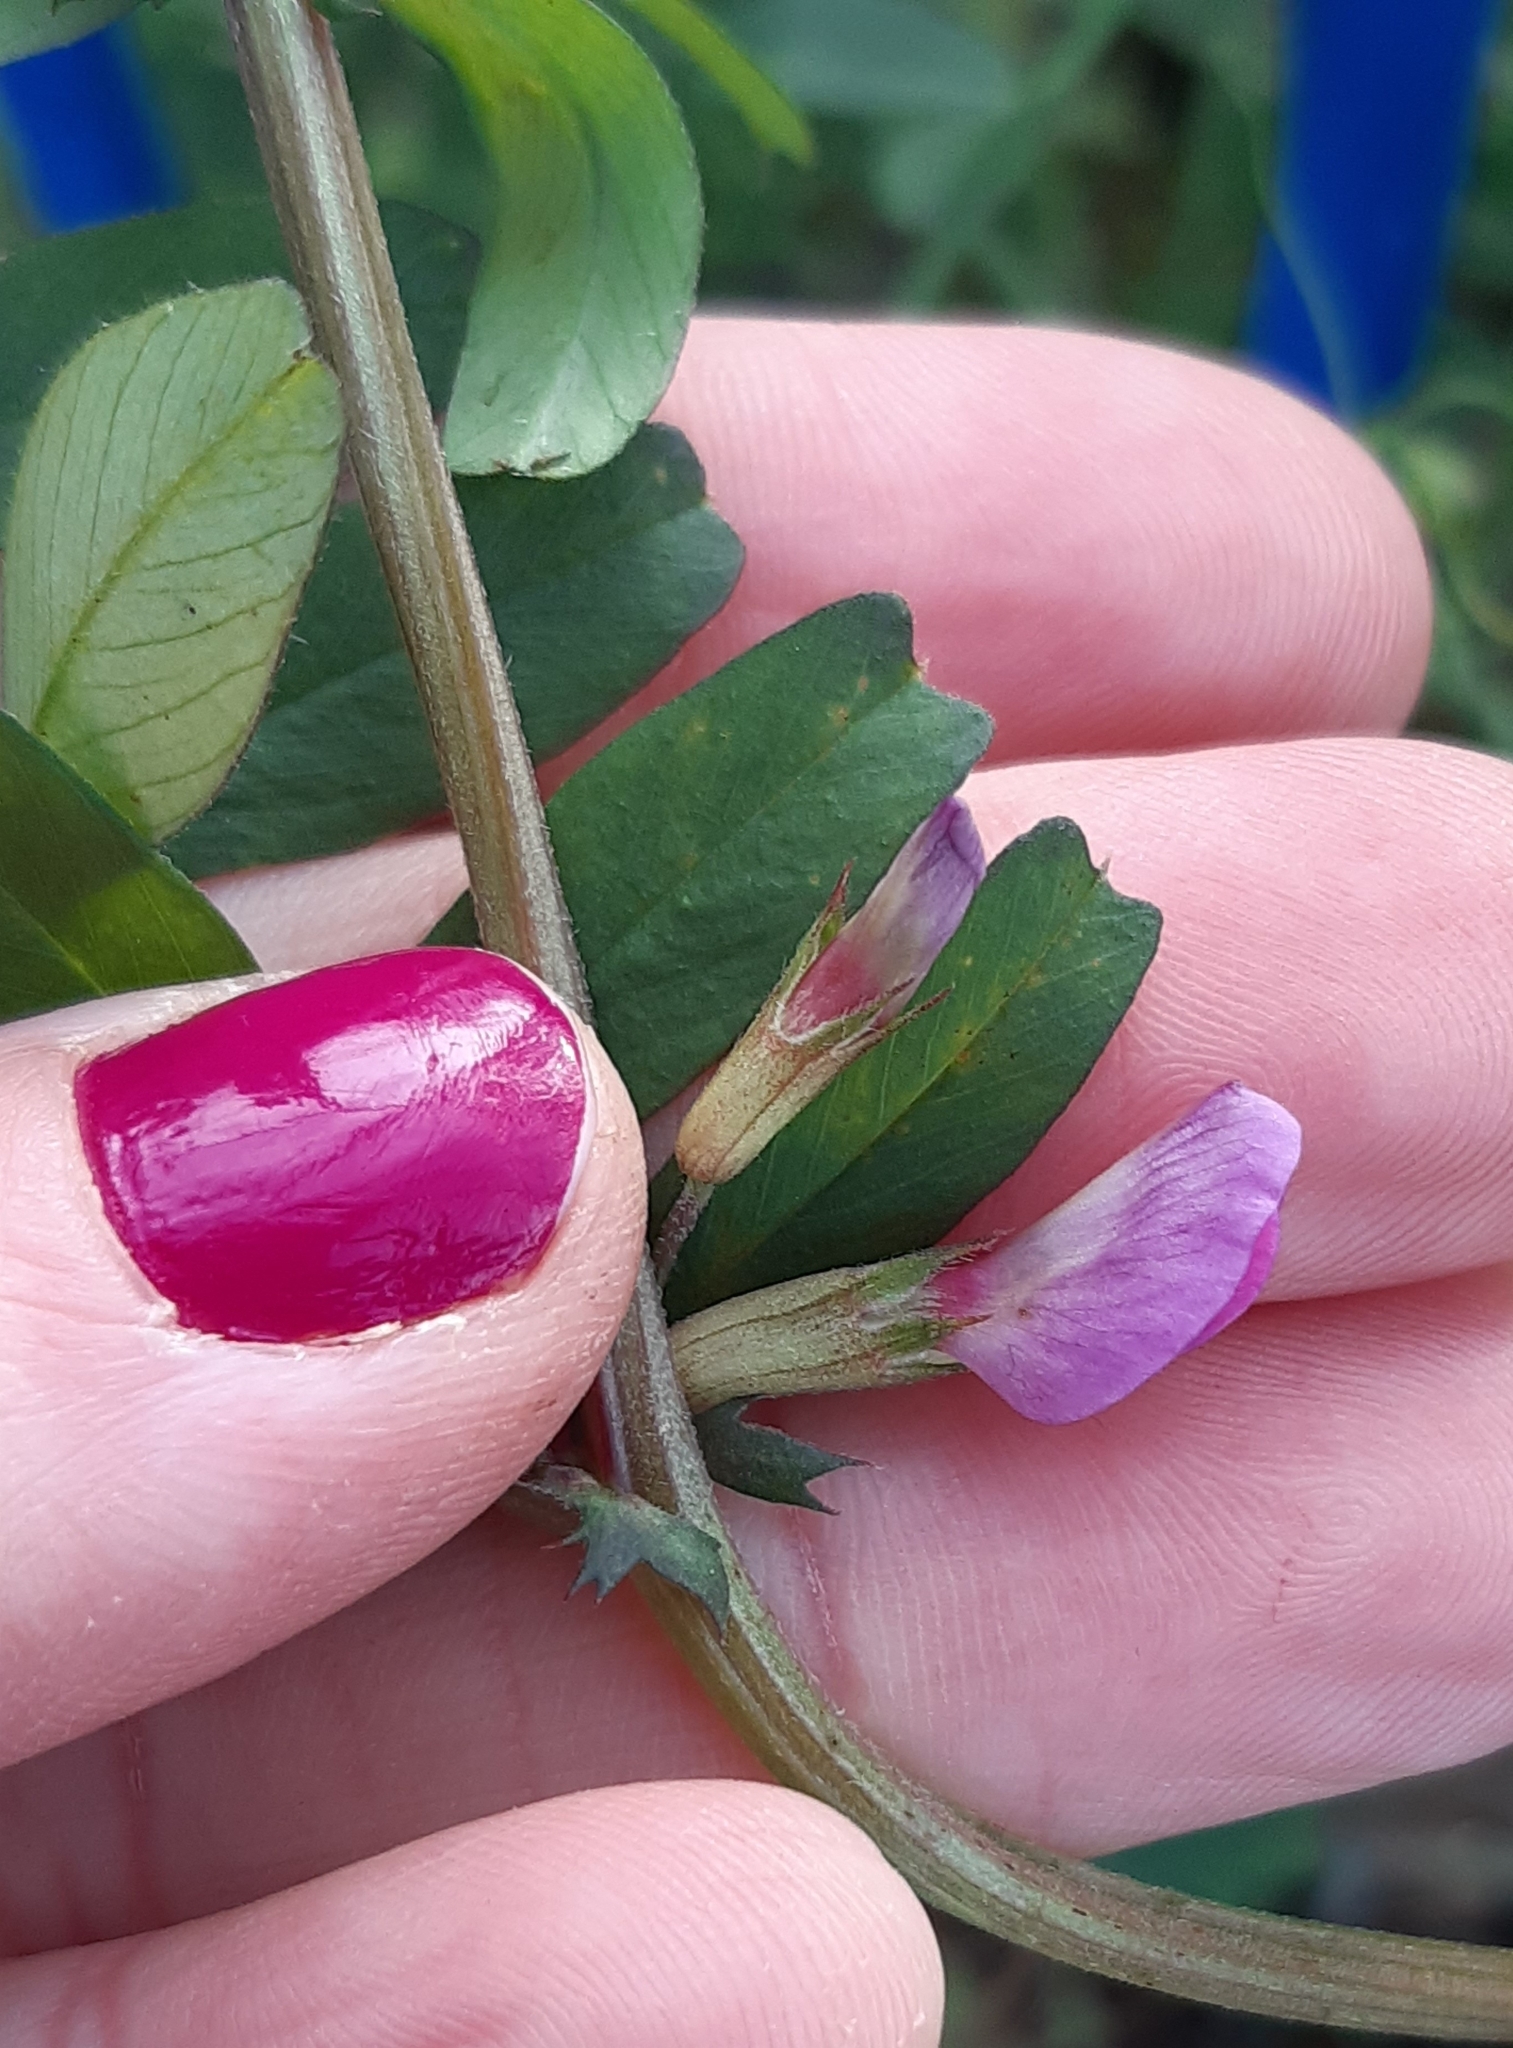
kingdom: Plantae
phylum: Tracheophyta
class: Magnoliopsida
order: Fabales
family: Fabaceae
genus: Vicia
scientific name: Vicia sativa
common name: Garden vetch
